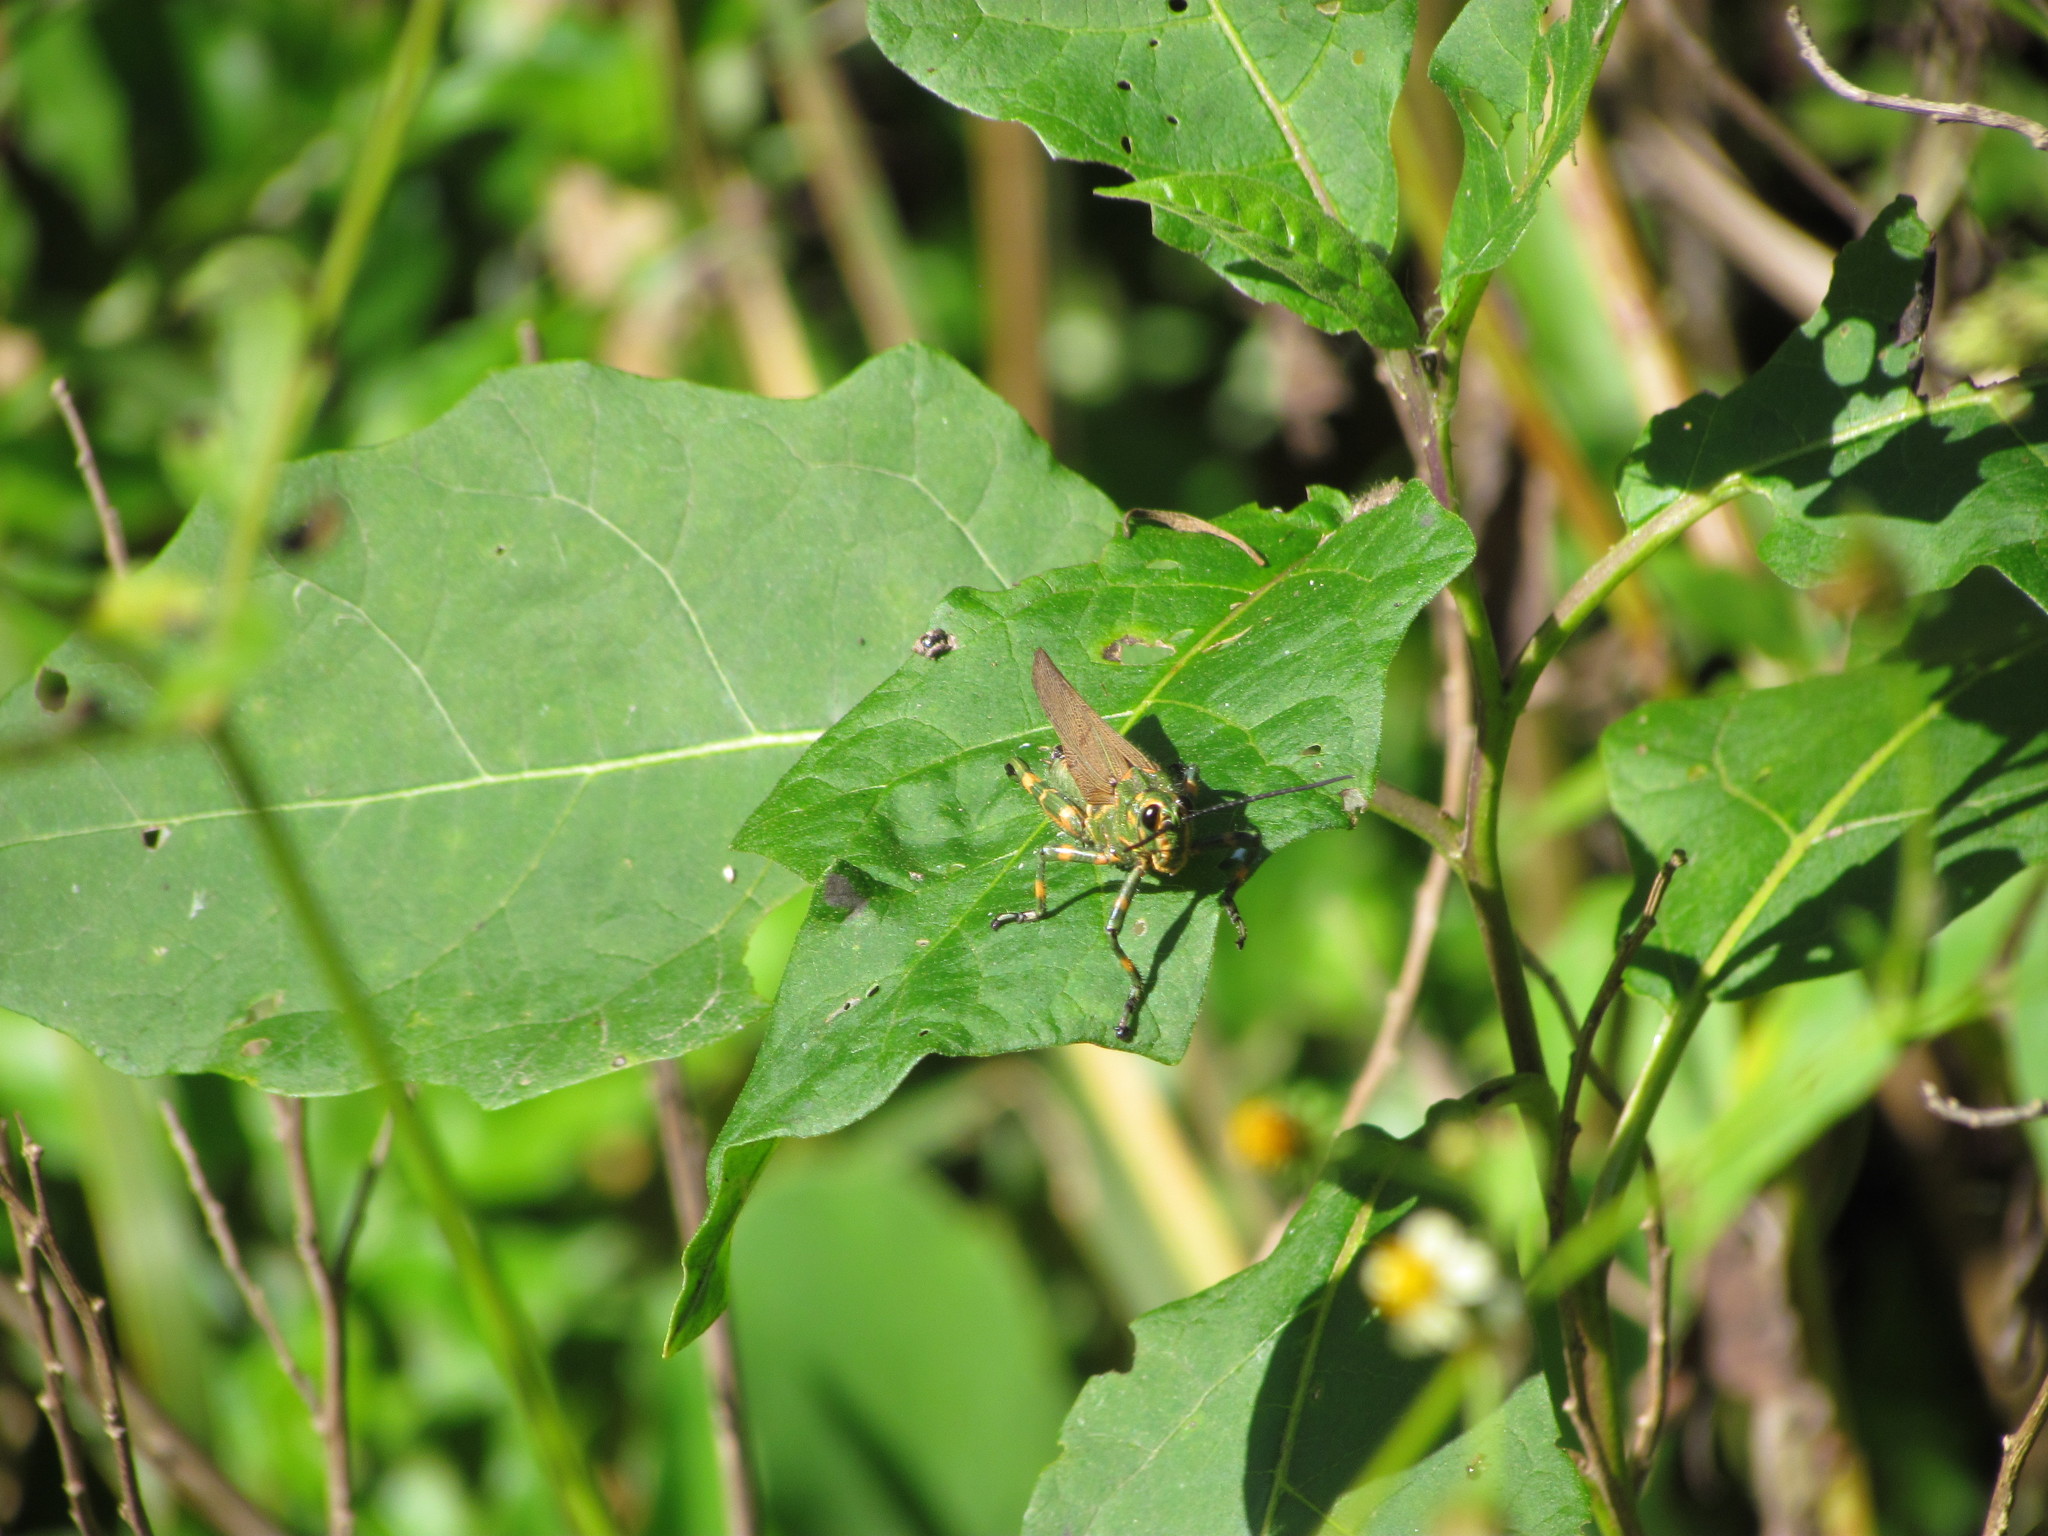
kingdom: Animalia
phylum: Arthropoda
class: Insecta
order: Orthoptera
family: Romaleidae
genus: Chromacris
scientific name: Chromacris speciosa
